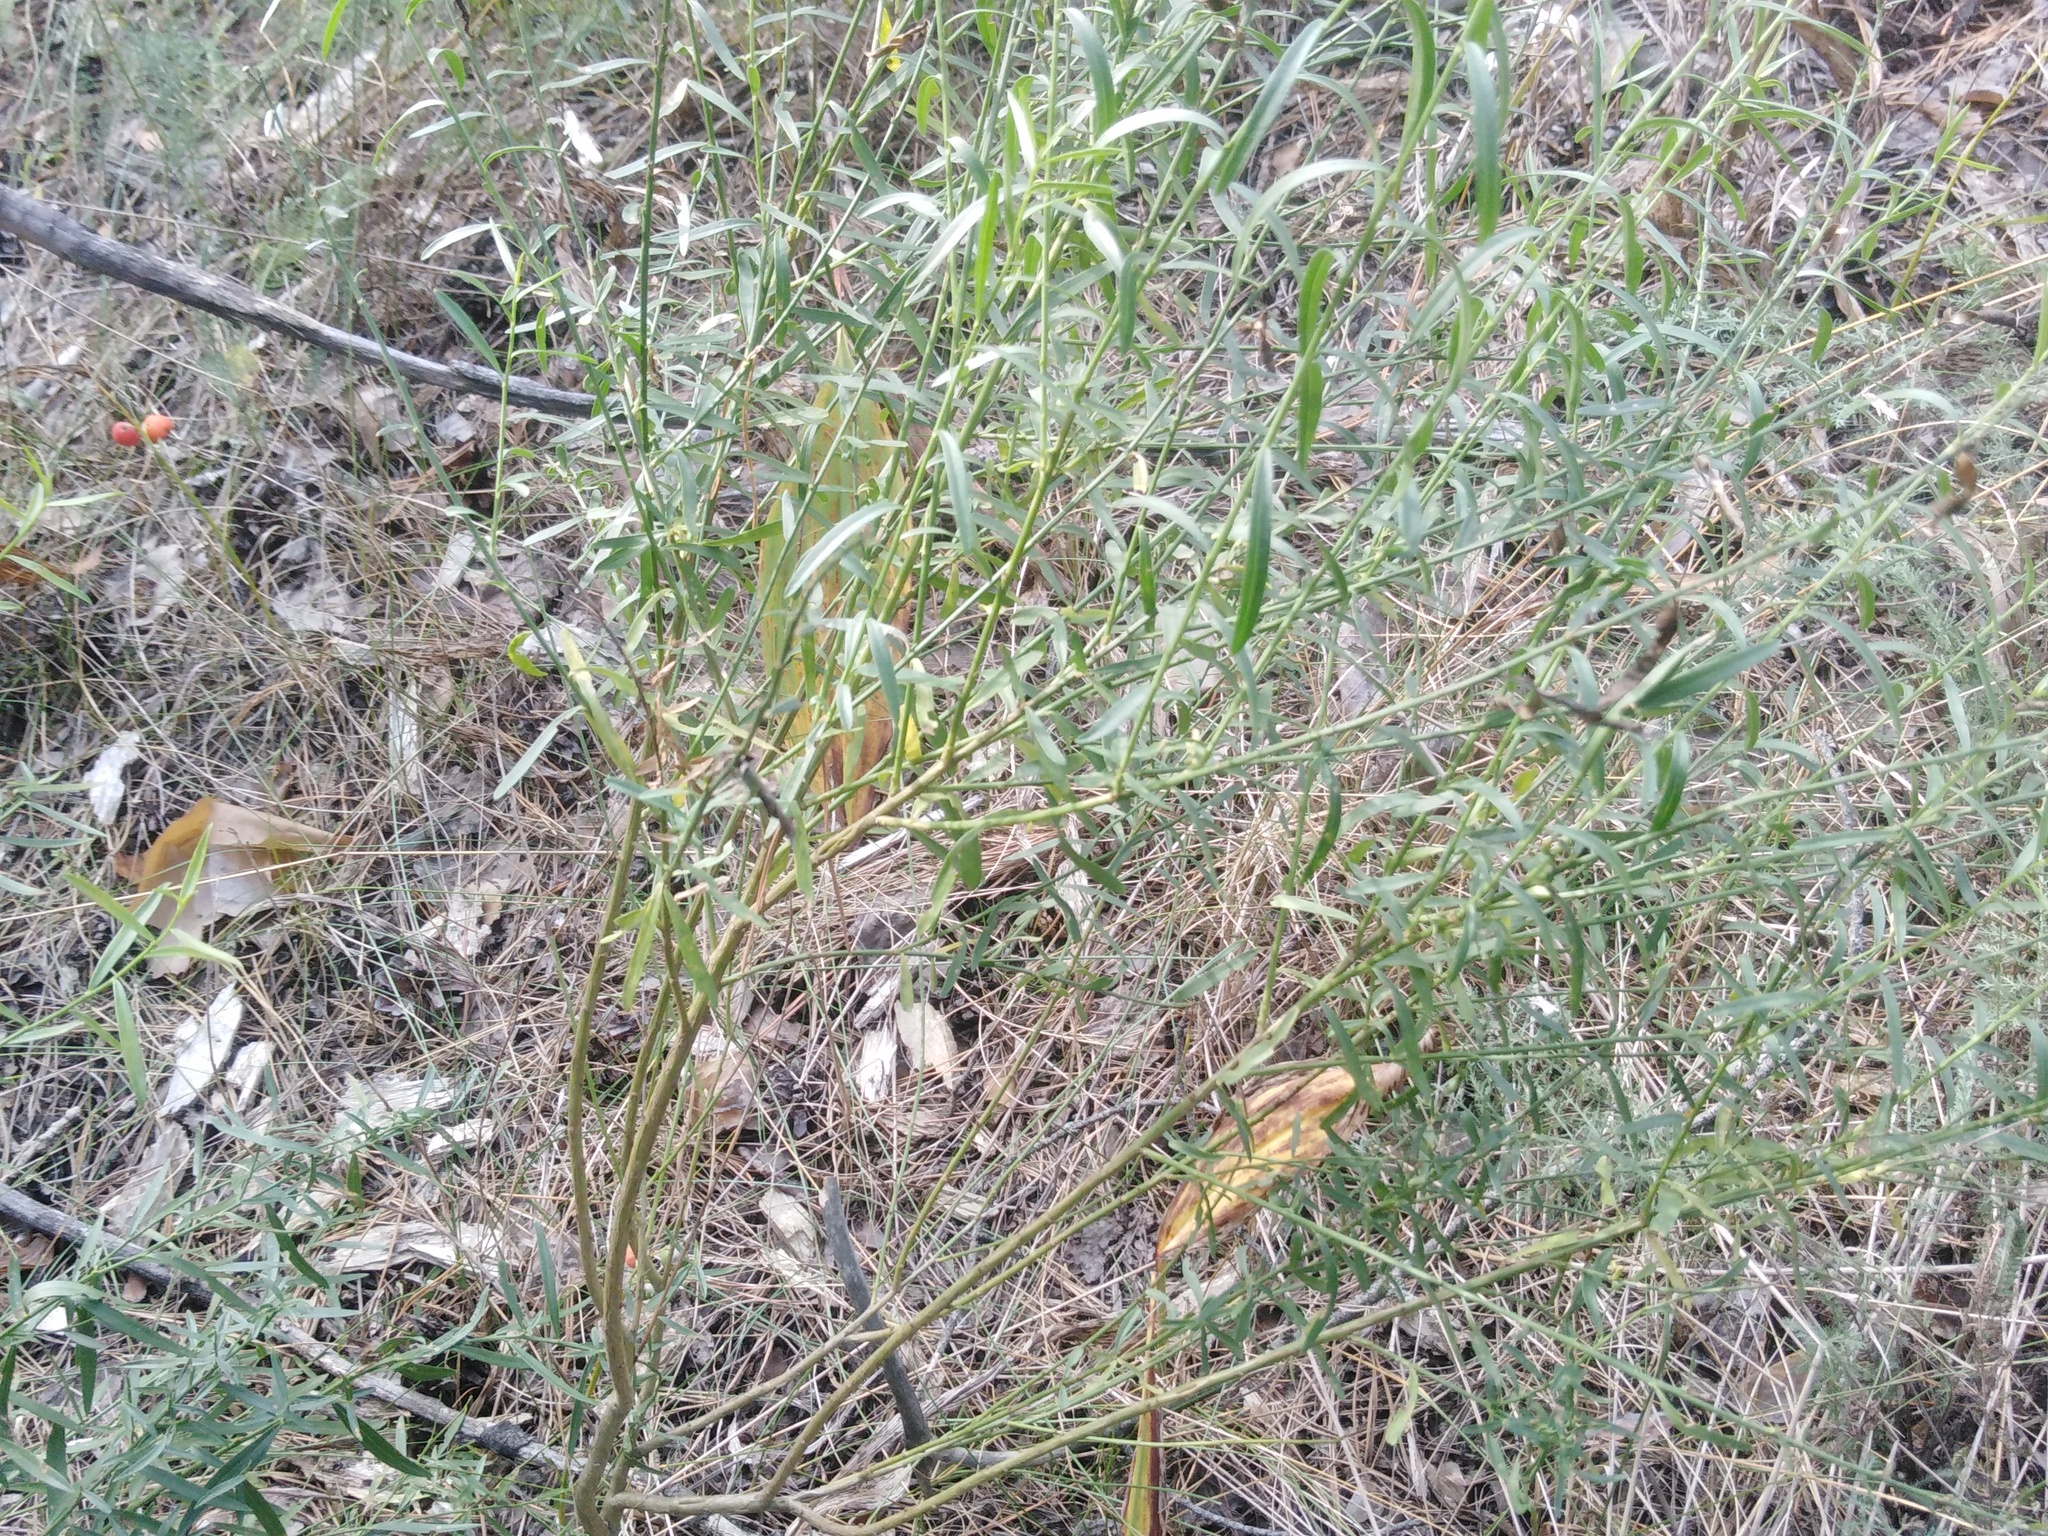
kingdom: Plantae
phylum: Tracheophyta
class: Magnoliopsida
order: Fabales
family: Fabaceae
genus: Genista
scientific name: Genista tinctoria
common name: Dyer's greenweed
